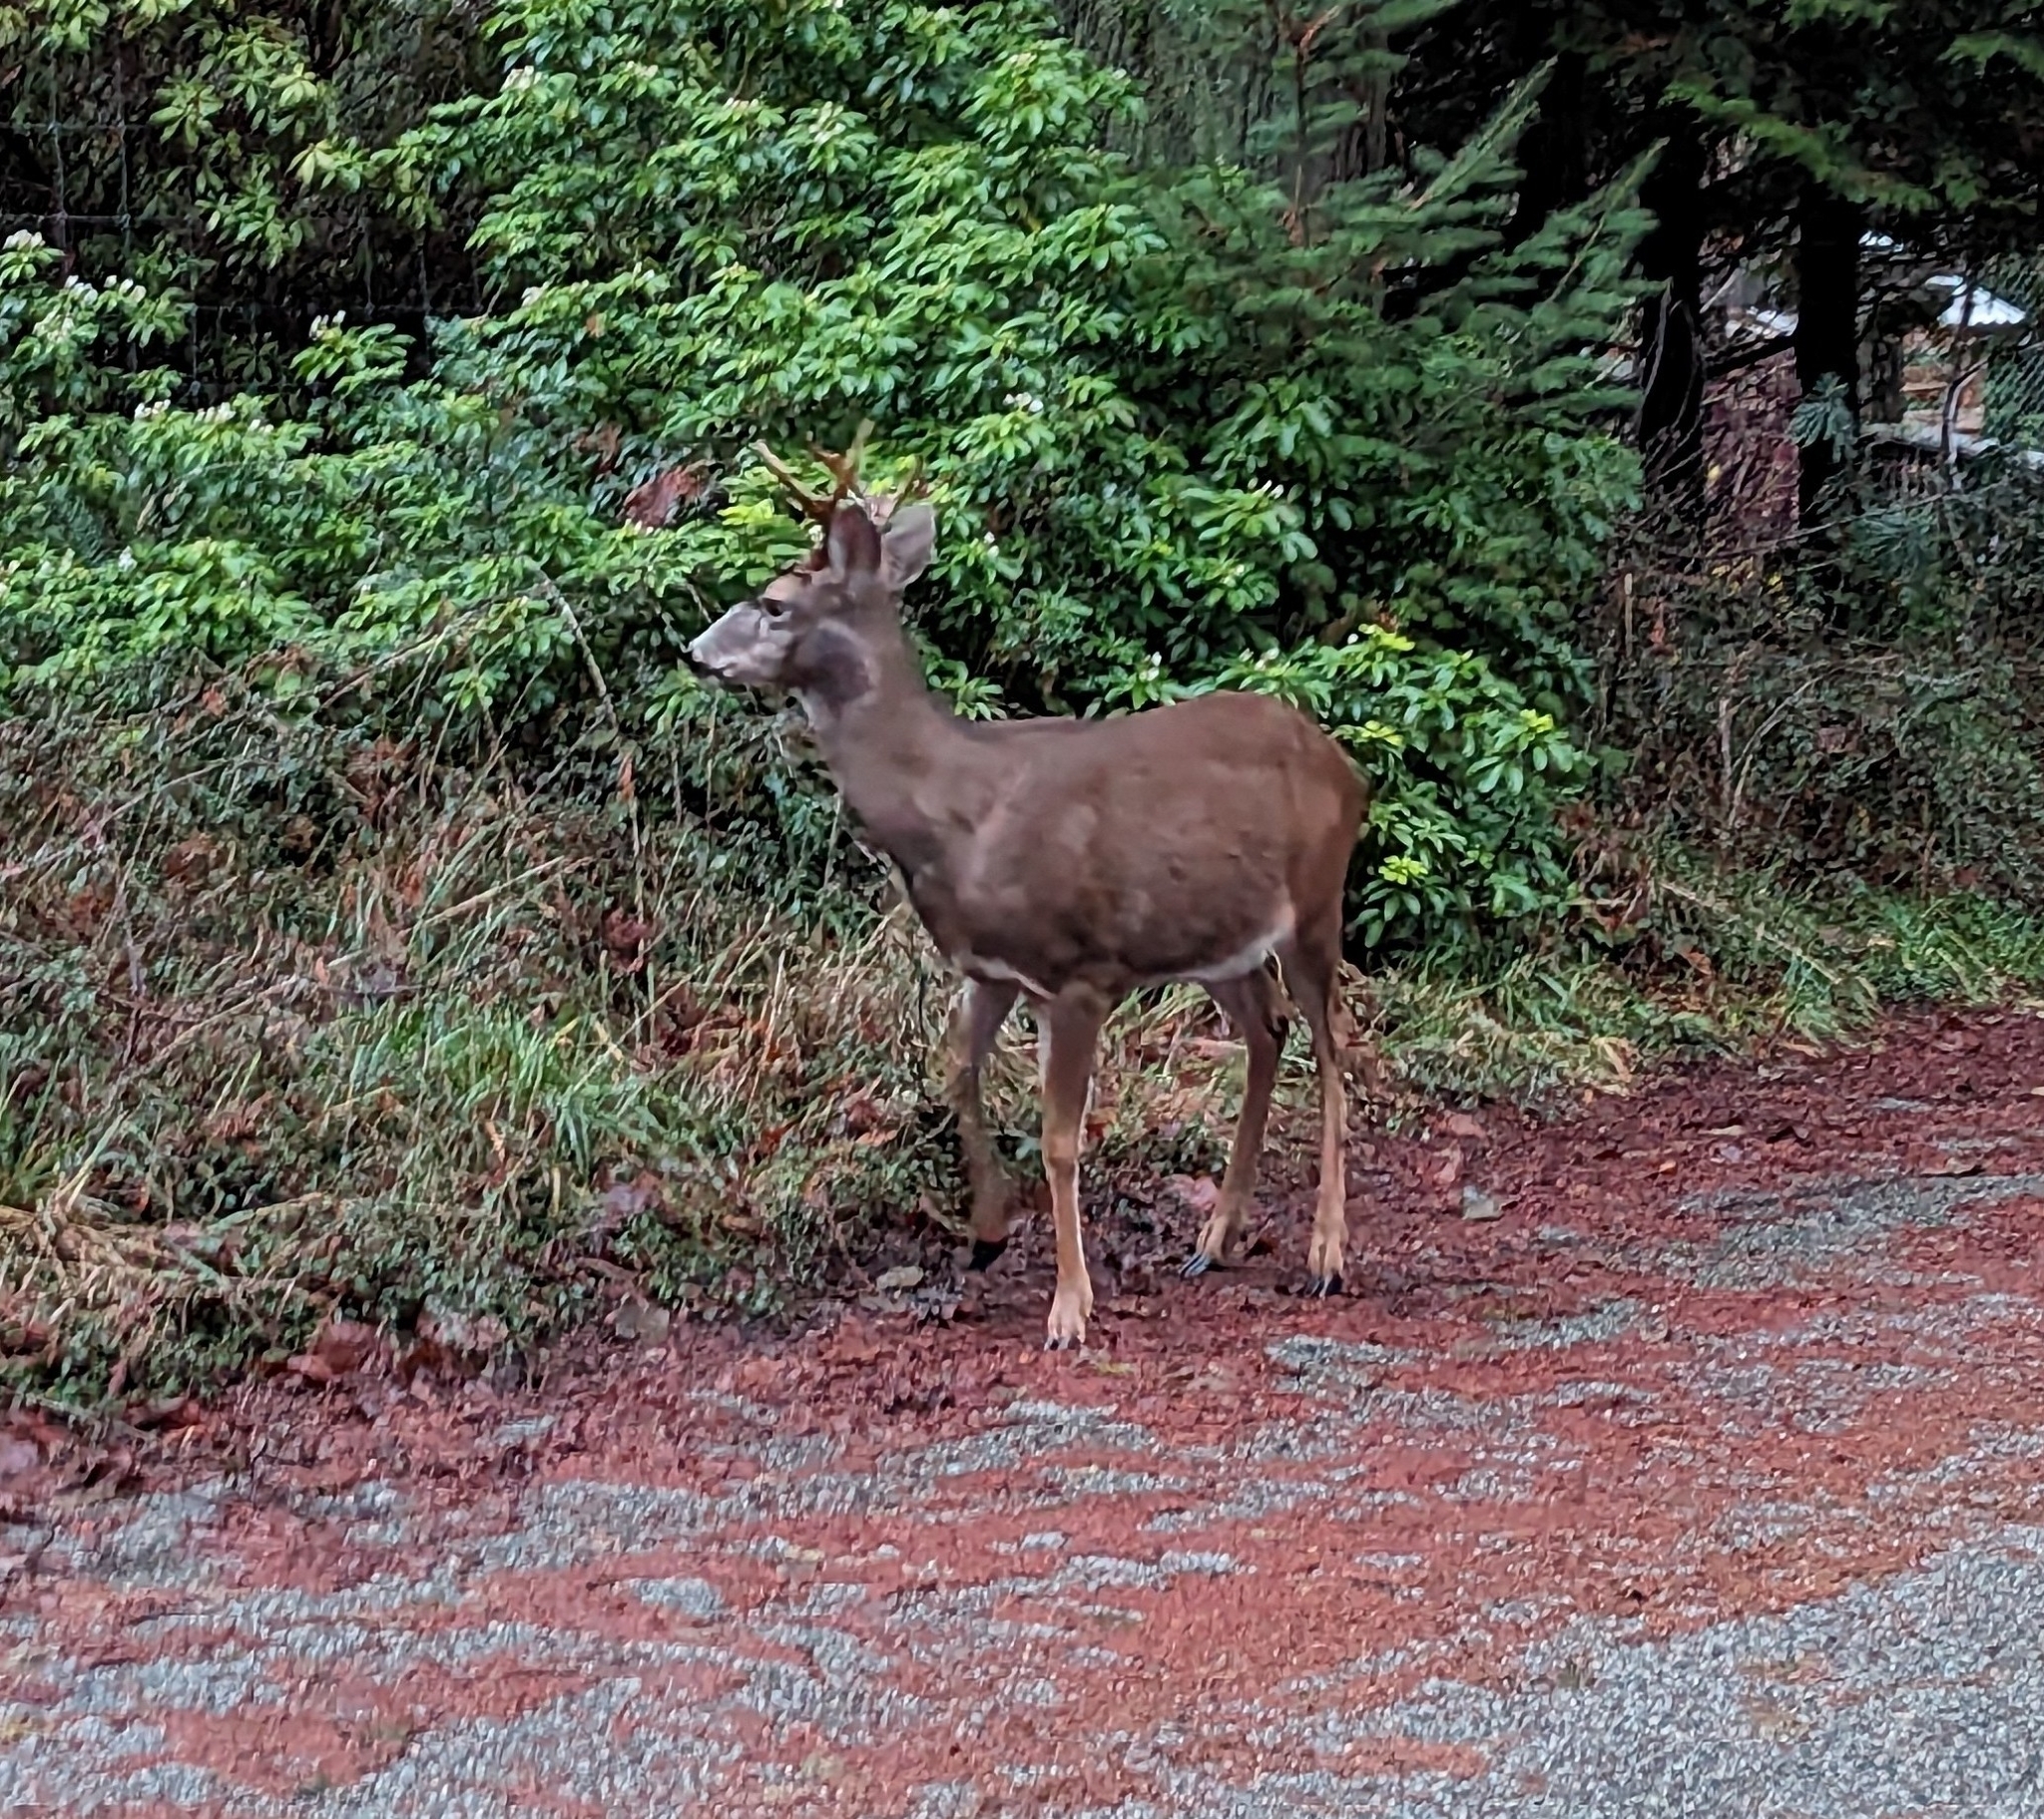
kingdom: Animalia
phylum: Chordata
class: Mammalia
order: Artiodactyla
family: Cervidae
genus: Odocoileus
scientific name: Odocoileus hemionus
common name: Mule deer
